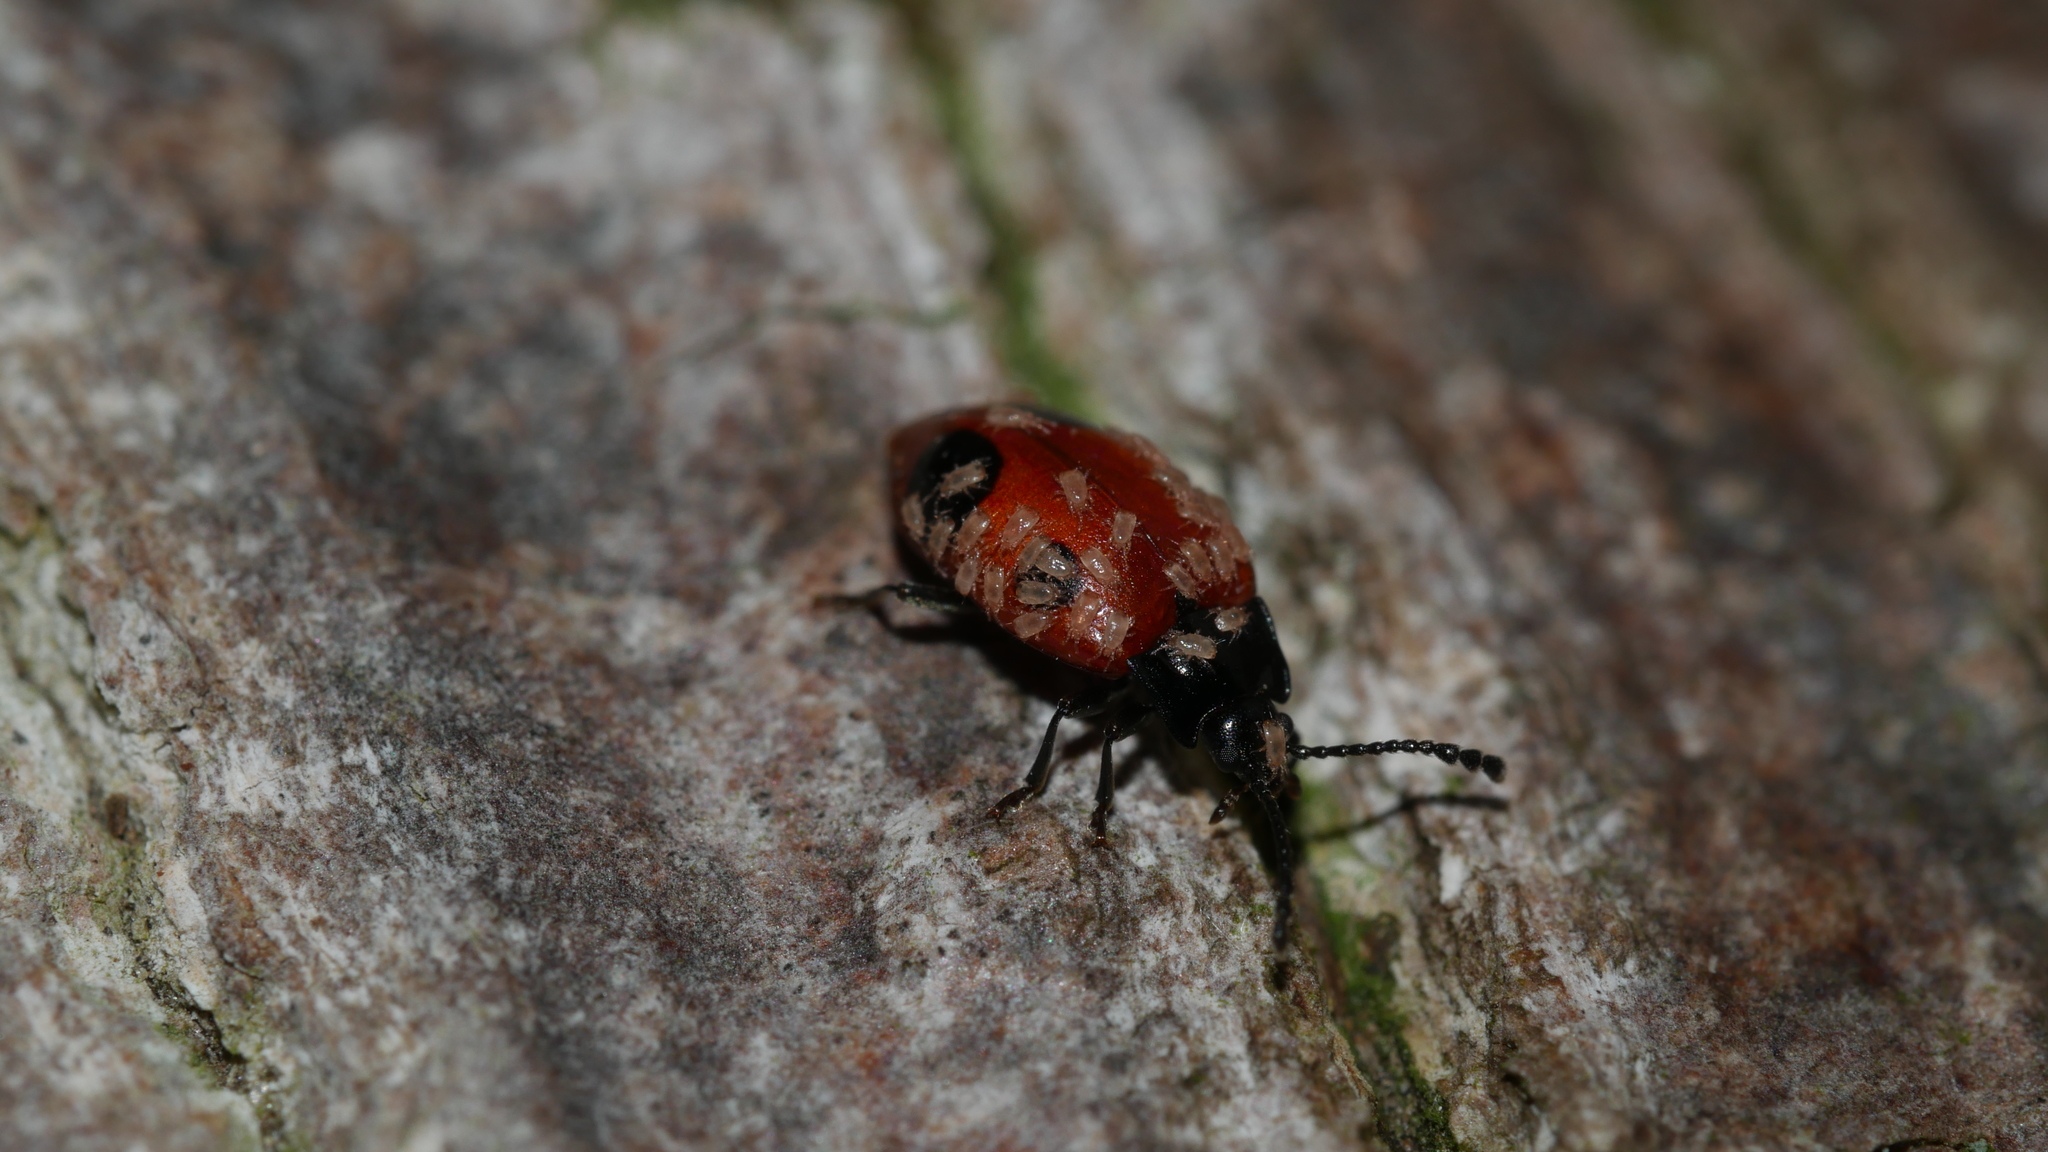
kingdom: Animalia
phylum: Arthropoda
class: Insecta
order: Coleoptera
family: Endomychidae
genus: Endomychus
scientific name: Endomychus biguttatus
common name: Handsome fungus beetle
